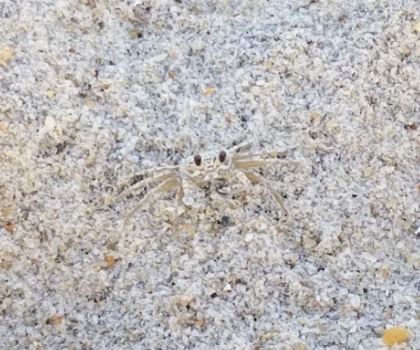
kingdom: Animalia
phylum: Arthropoda
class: Malacostraca
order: Decapoda
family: Ocypodidae
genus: Ocypode
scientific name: Ocypode quadrata
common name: Ghost crab
